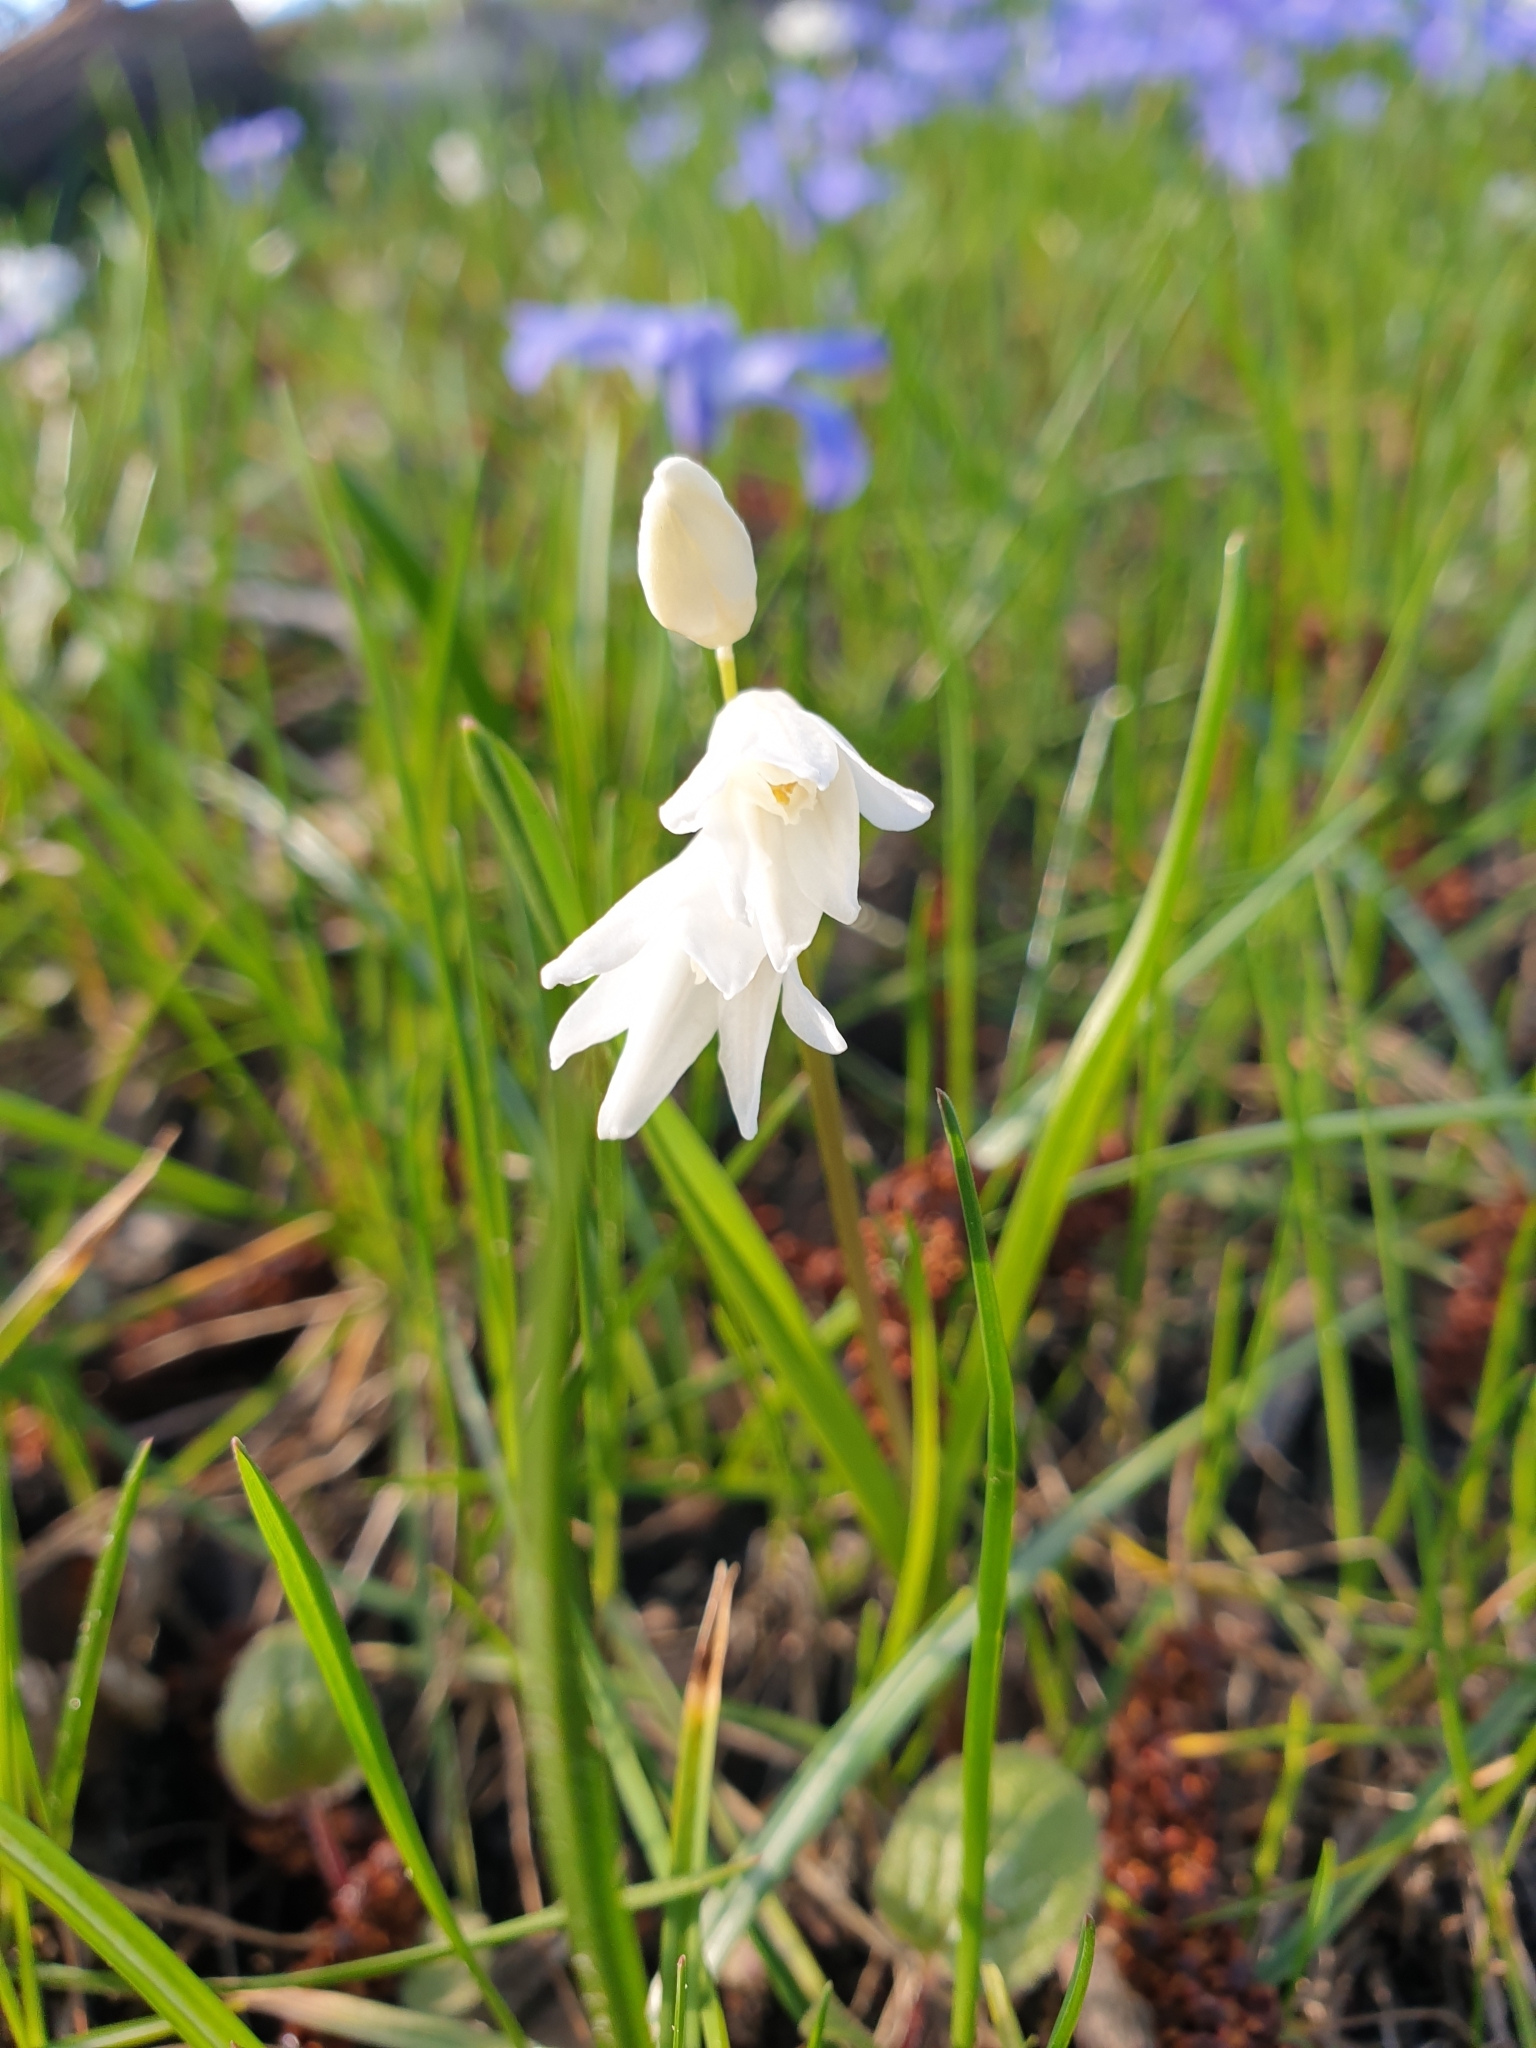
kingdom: Plantae
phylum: Tracheophyta
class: Liliopsida
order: Asparagales
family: Asparagaceae
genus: Puschkinia
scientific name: Puschkinia scilloides
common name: Striped squill
